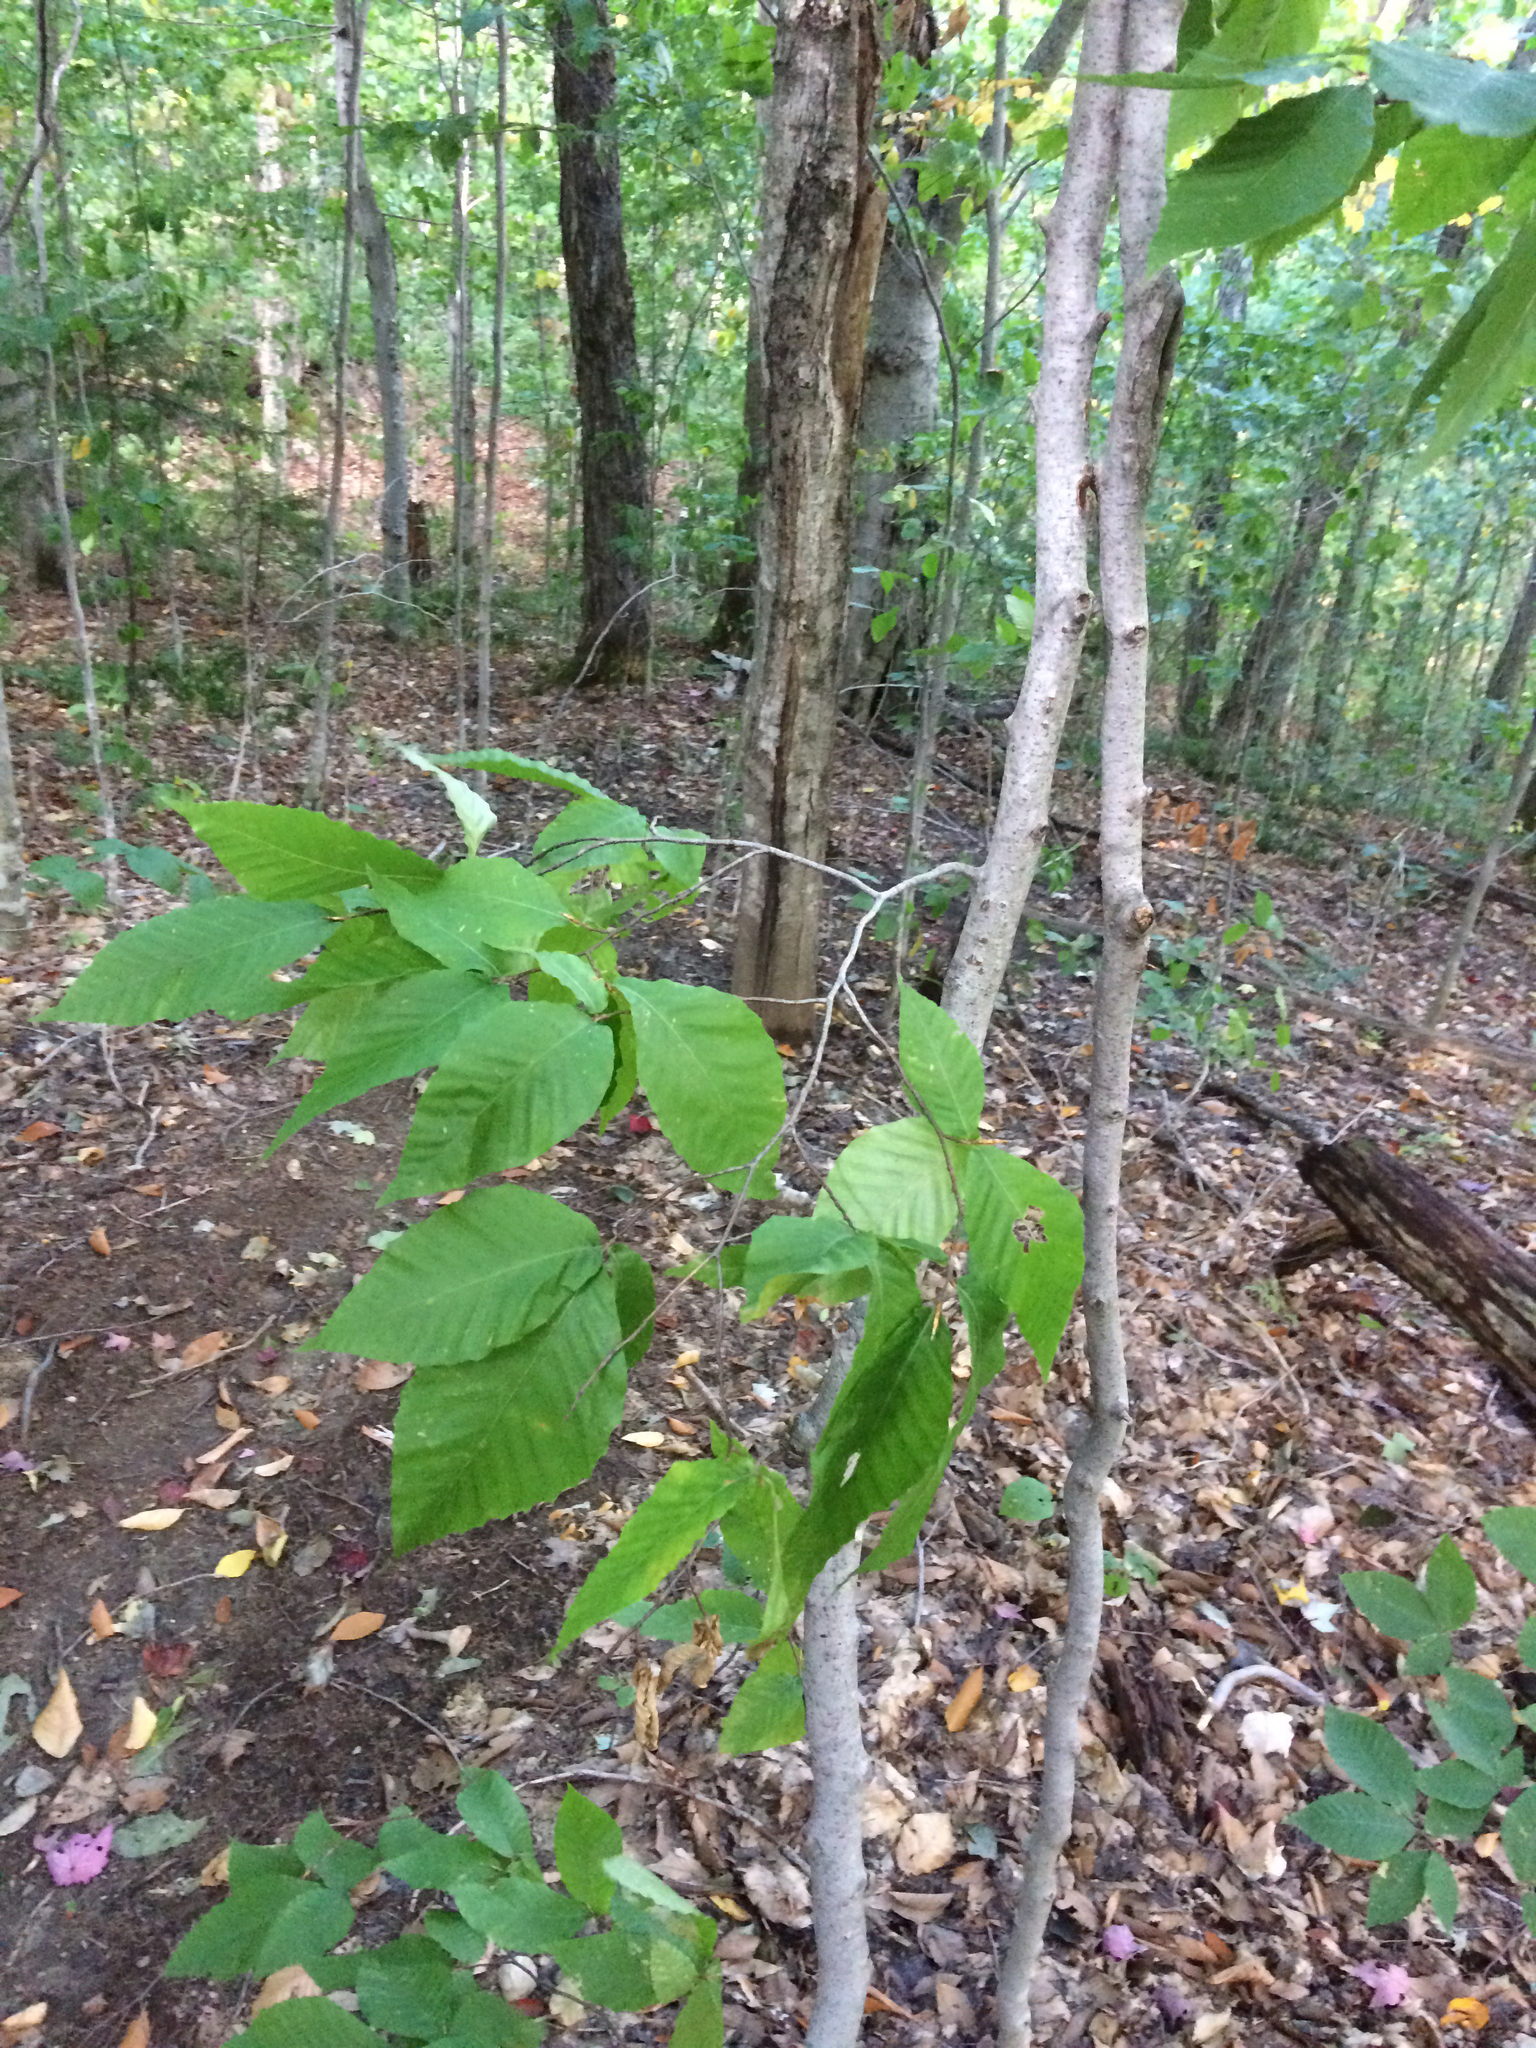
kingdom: Plantae
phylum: Tracheophyta
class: Magnoliopsida
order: Fagales
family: Fagaceae
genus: Fagus
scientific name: Fagus grandifolia
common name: American beech
